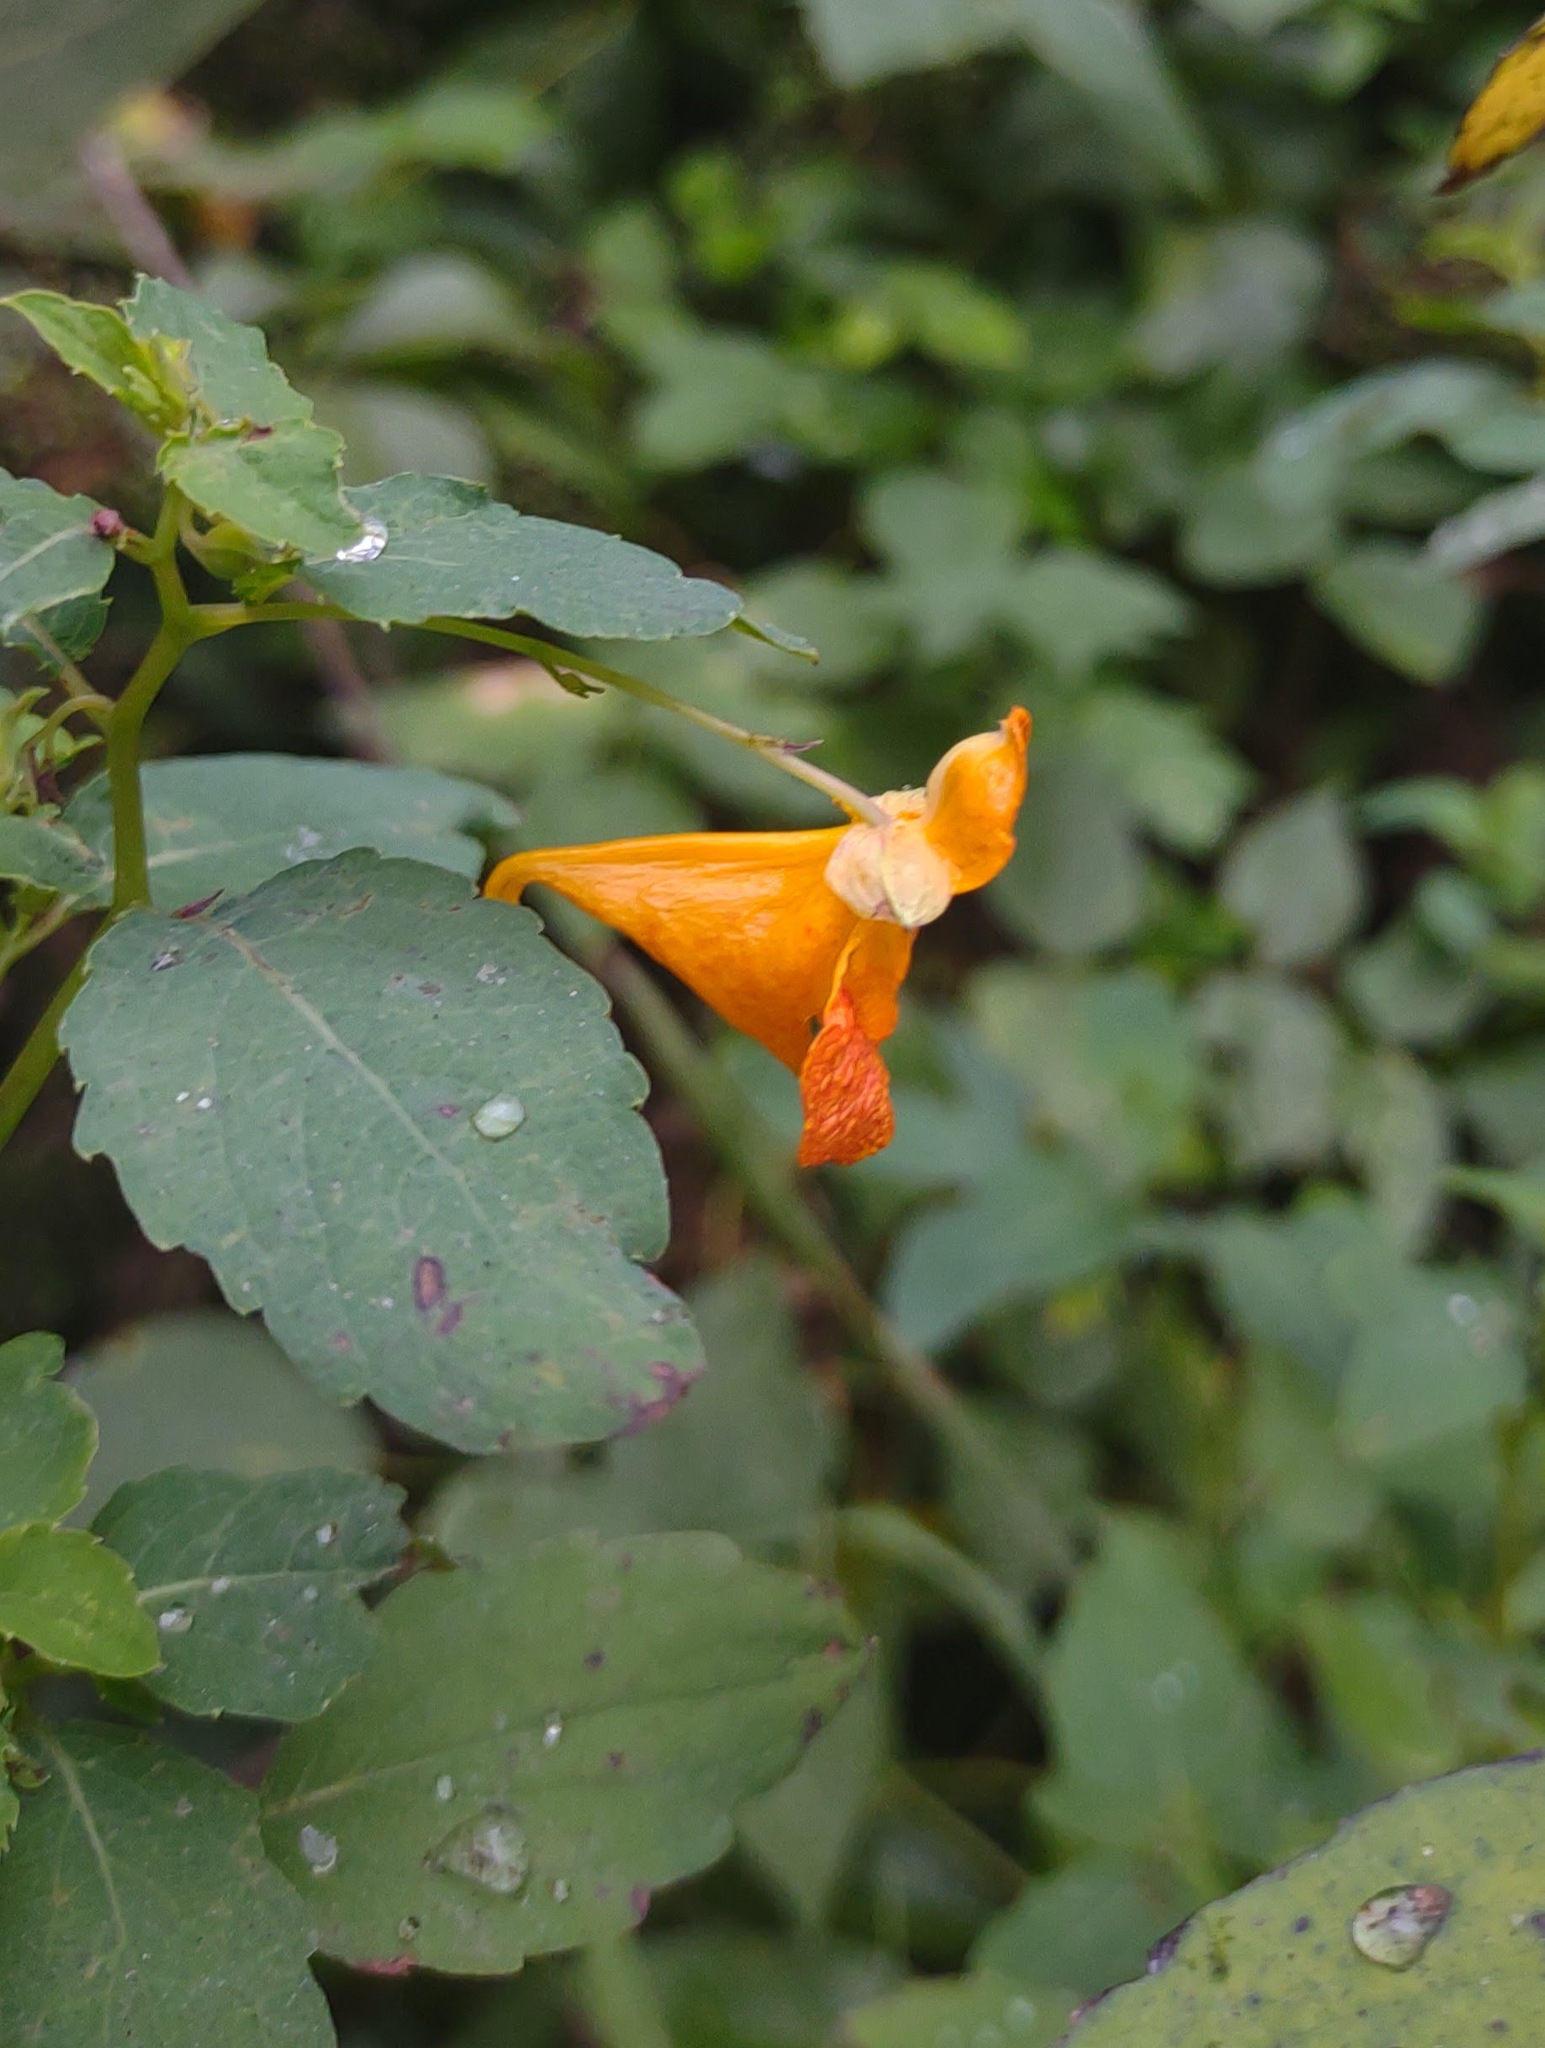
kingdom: Plantae
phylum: Tracheophyta
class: Magnoliopsida
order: Ericales
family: Balsaminaceae
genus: Impatiens
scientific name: Impatiens capensis
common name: Orange balsam
